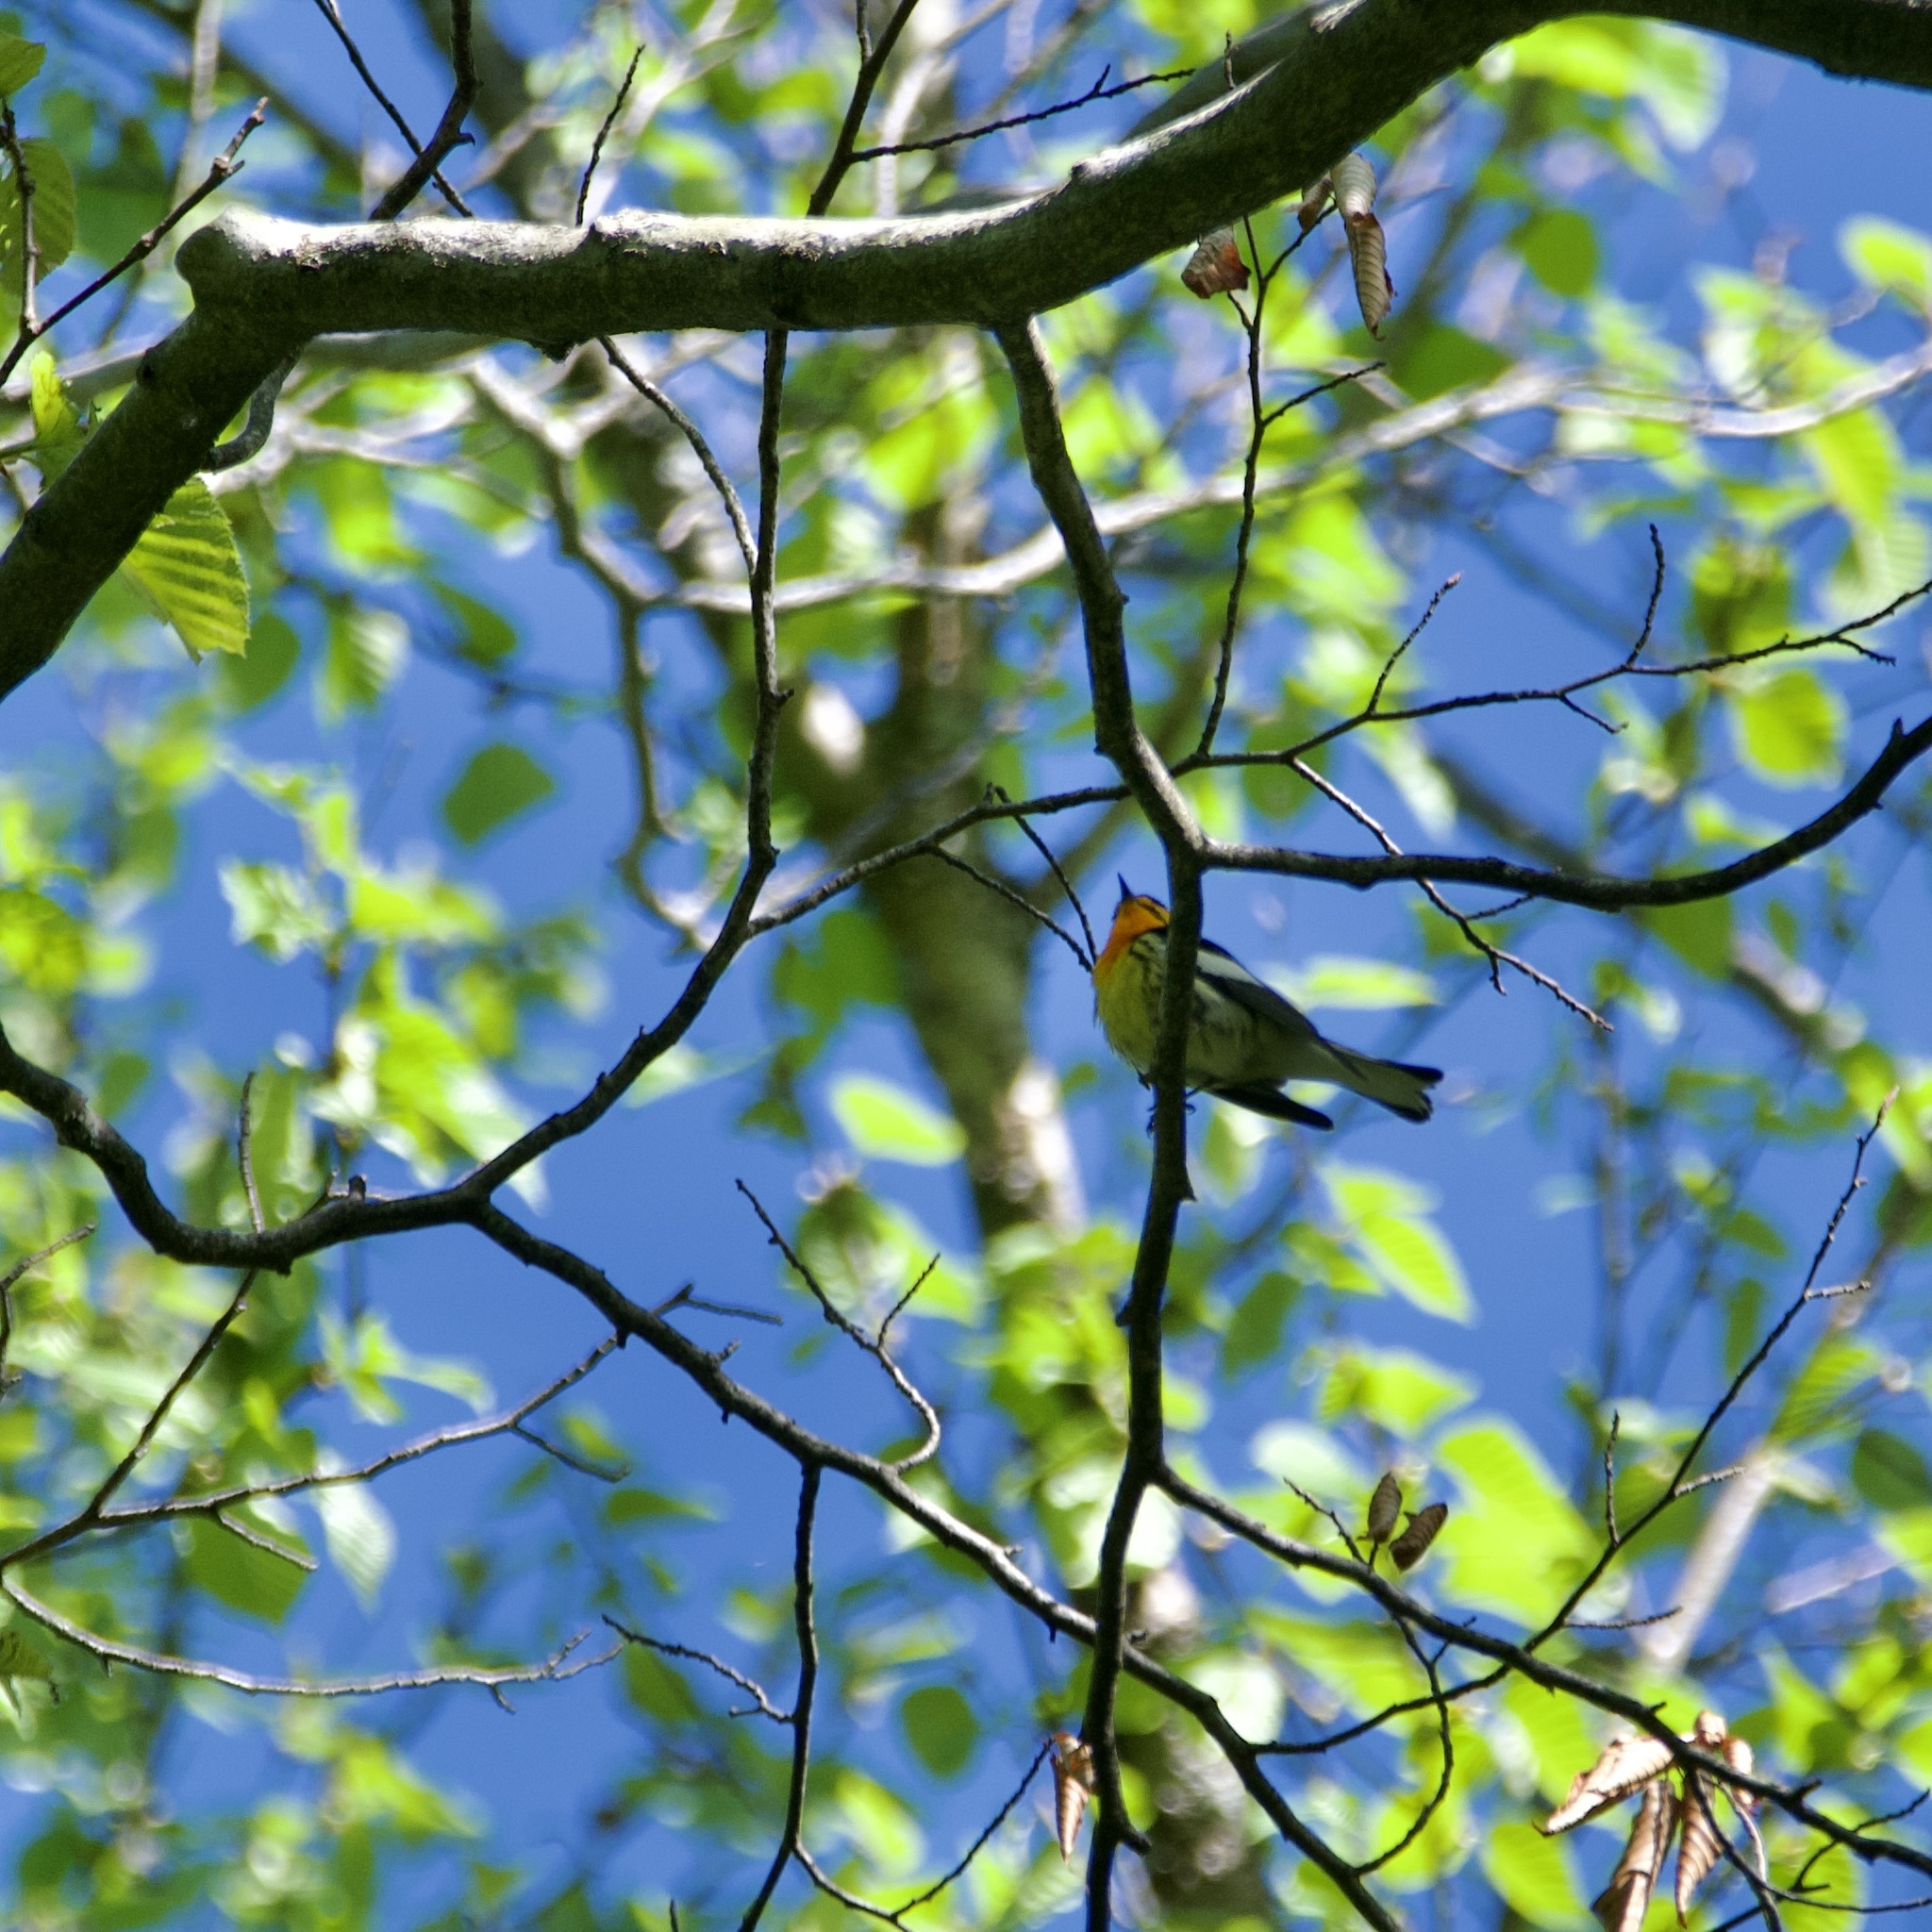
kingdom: Animalia
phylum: Chordata
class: Aves
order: Passeriformes
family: Parulidae
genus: Setophaga
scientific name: Setophaga fusca
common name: Blackburnian warbler
